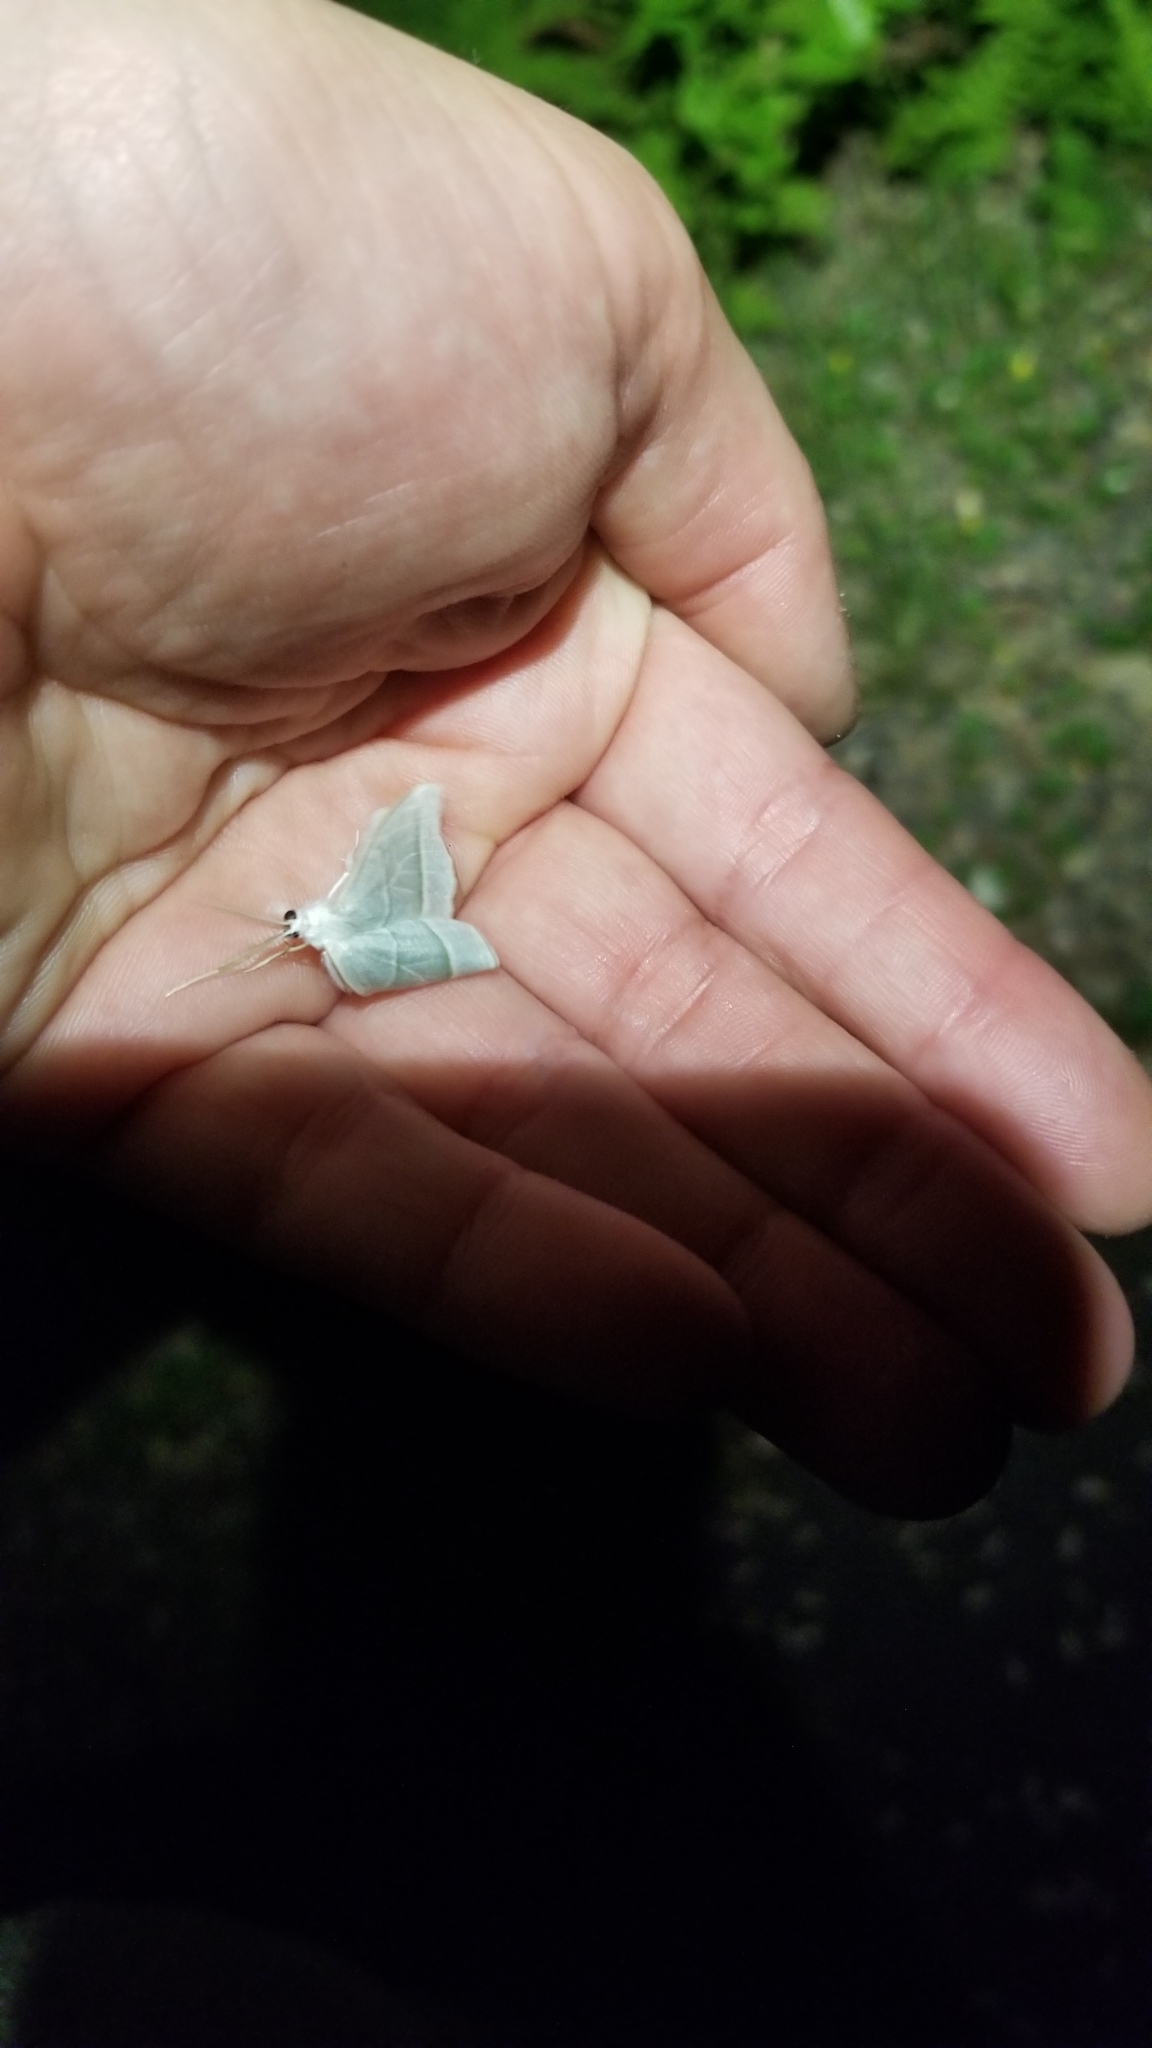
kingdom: Animalia
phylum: Arthropoda
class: Insecta
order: Lepidoptera
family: Geometridae
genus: Campaea
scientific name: Campaea perlata
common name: Fringed looper
